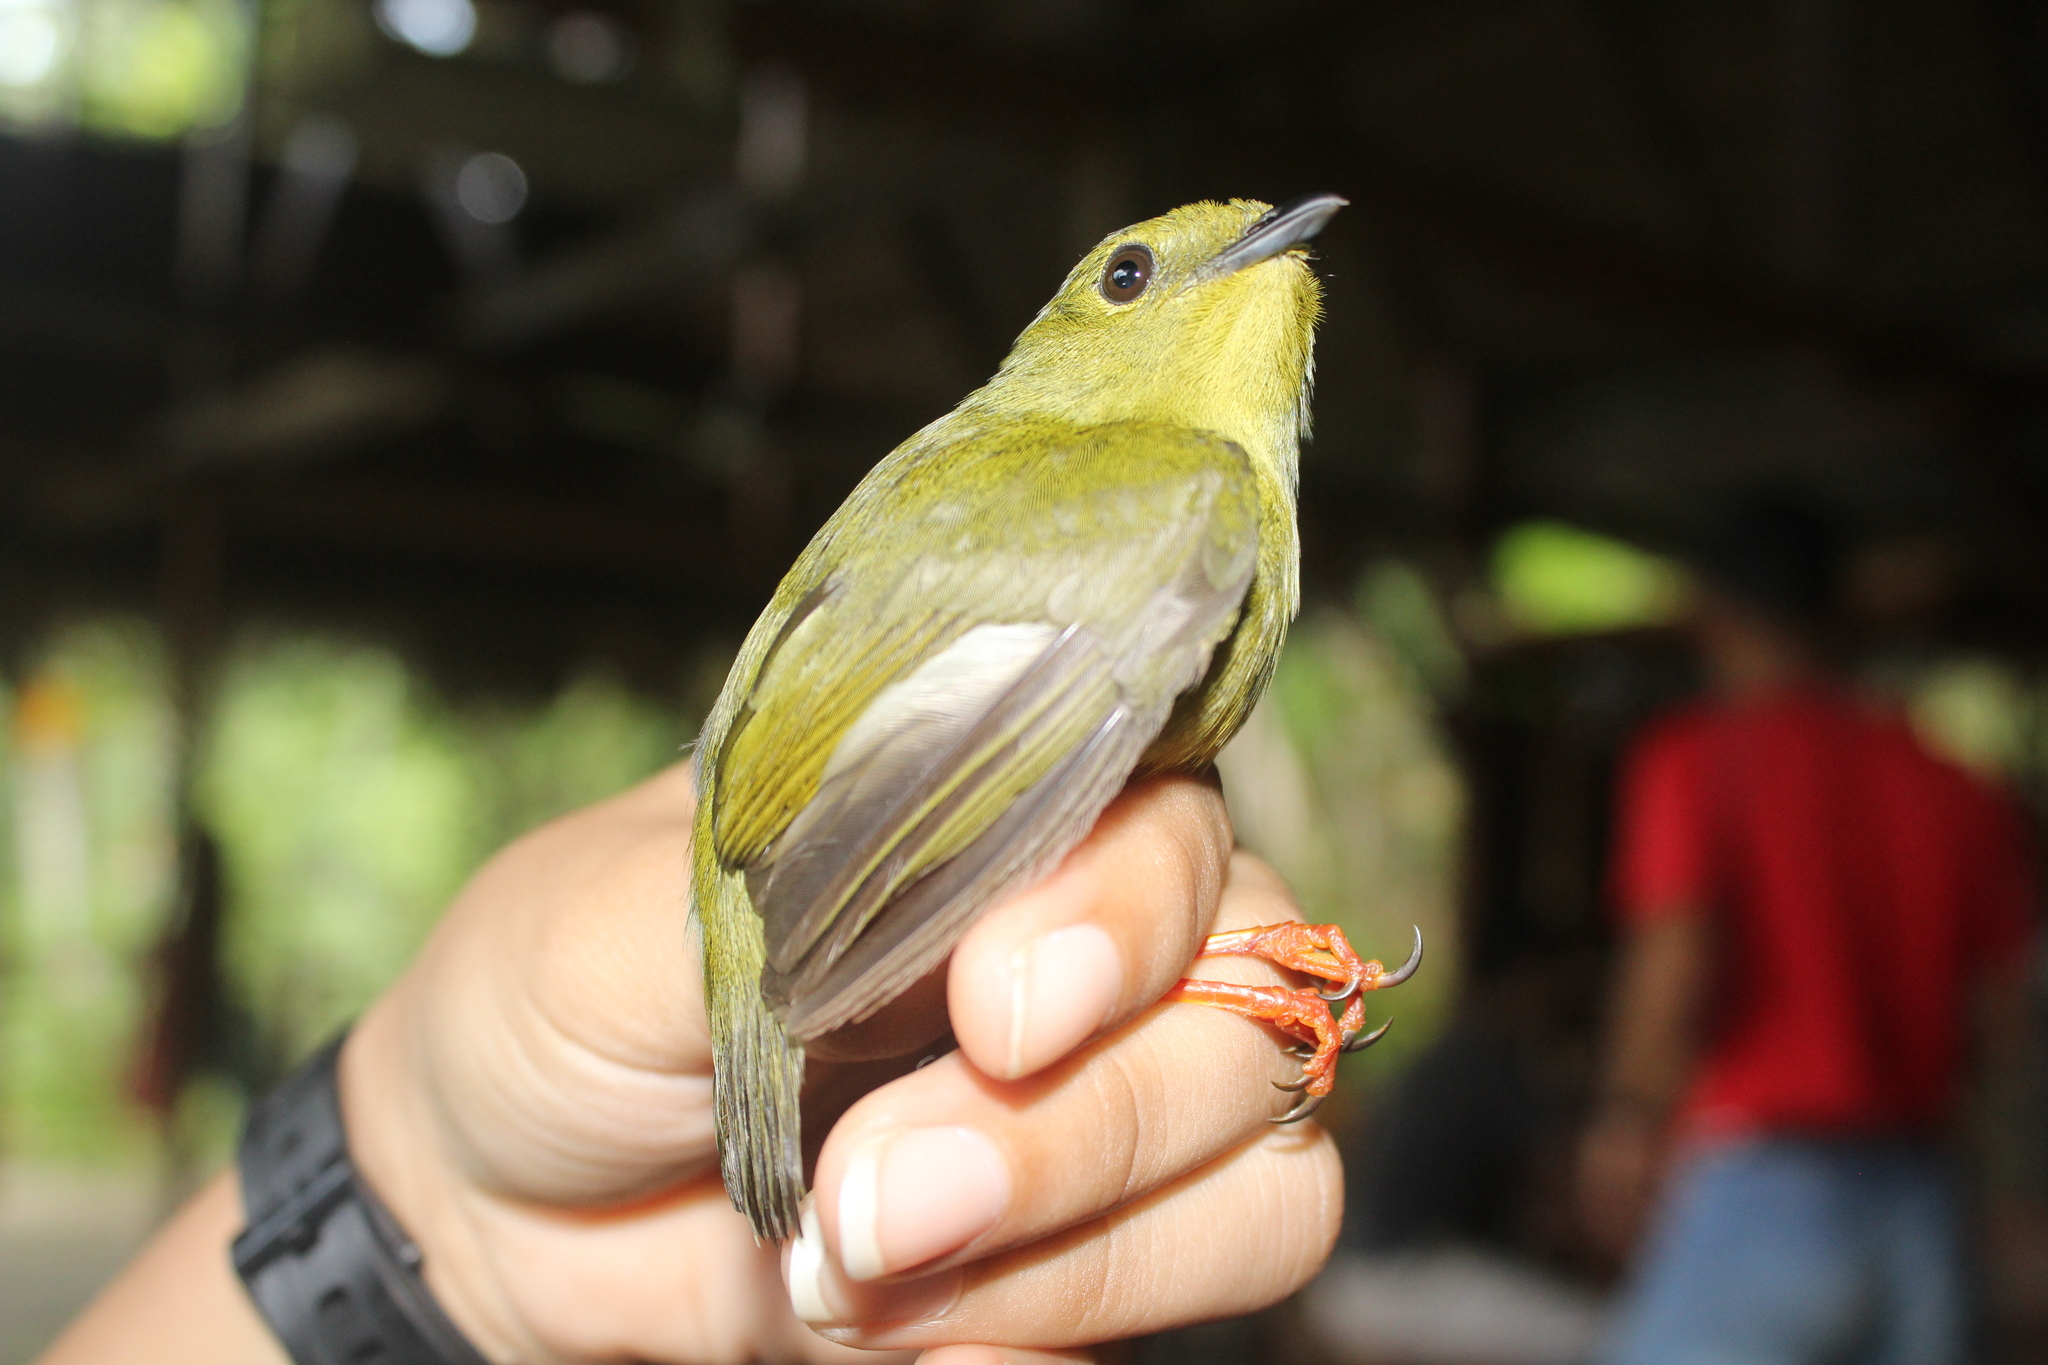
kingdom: Animalia
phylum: Chordata
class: Aves
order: Passeriformes
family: Pipridae
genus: Manacus
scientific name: Manacus vitellinus
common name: Golden-collared manakin
